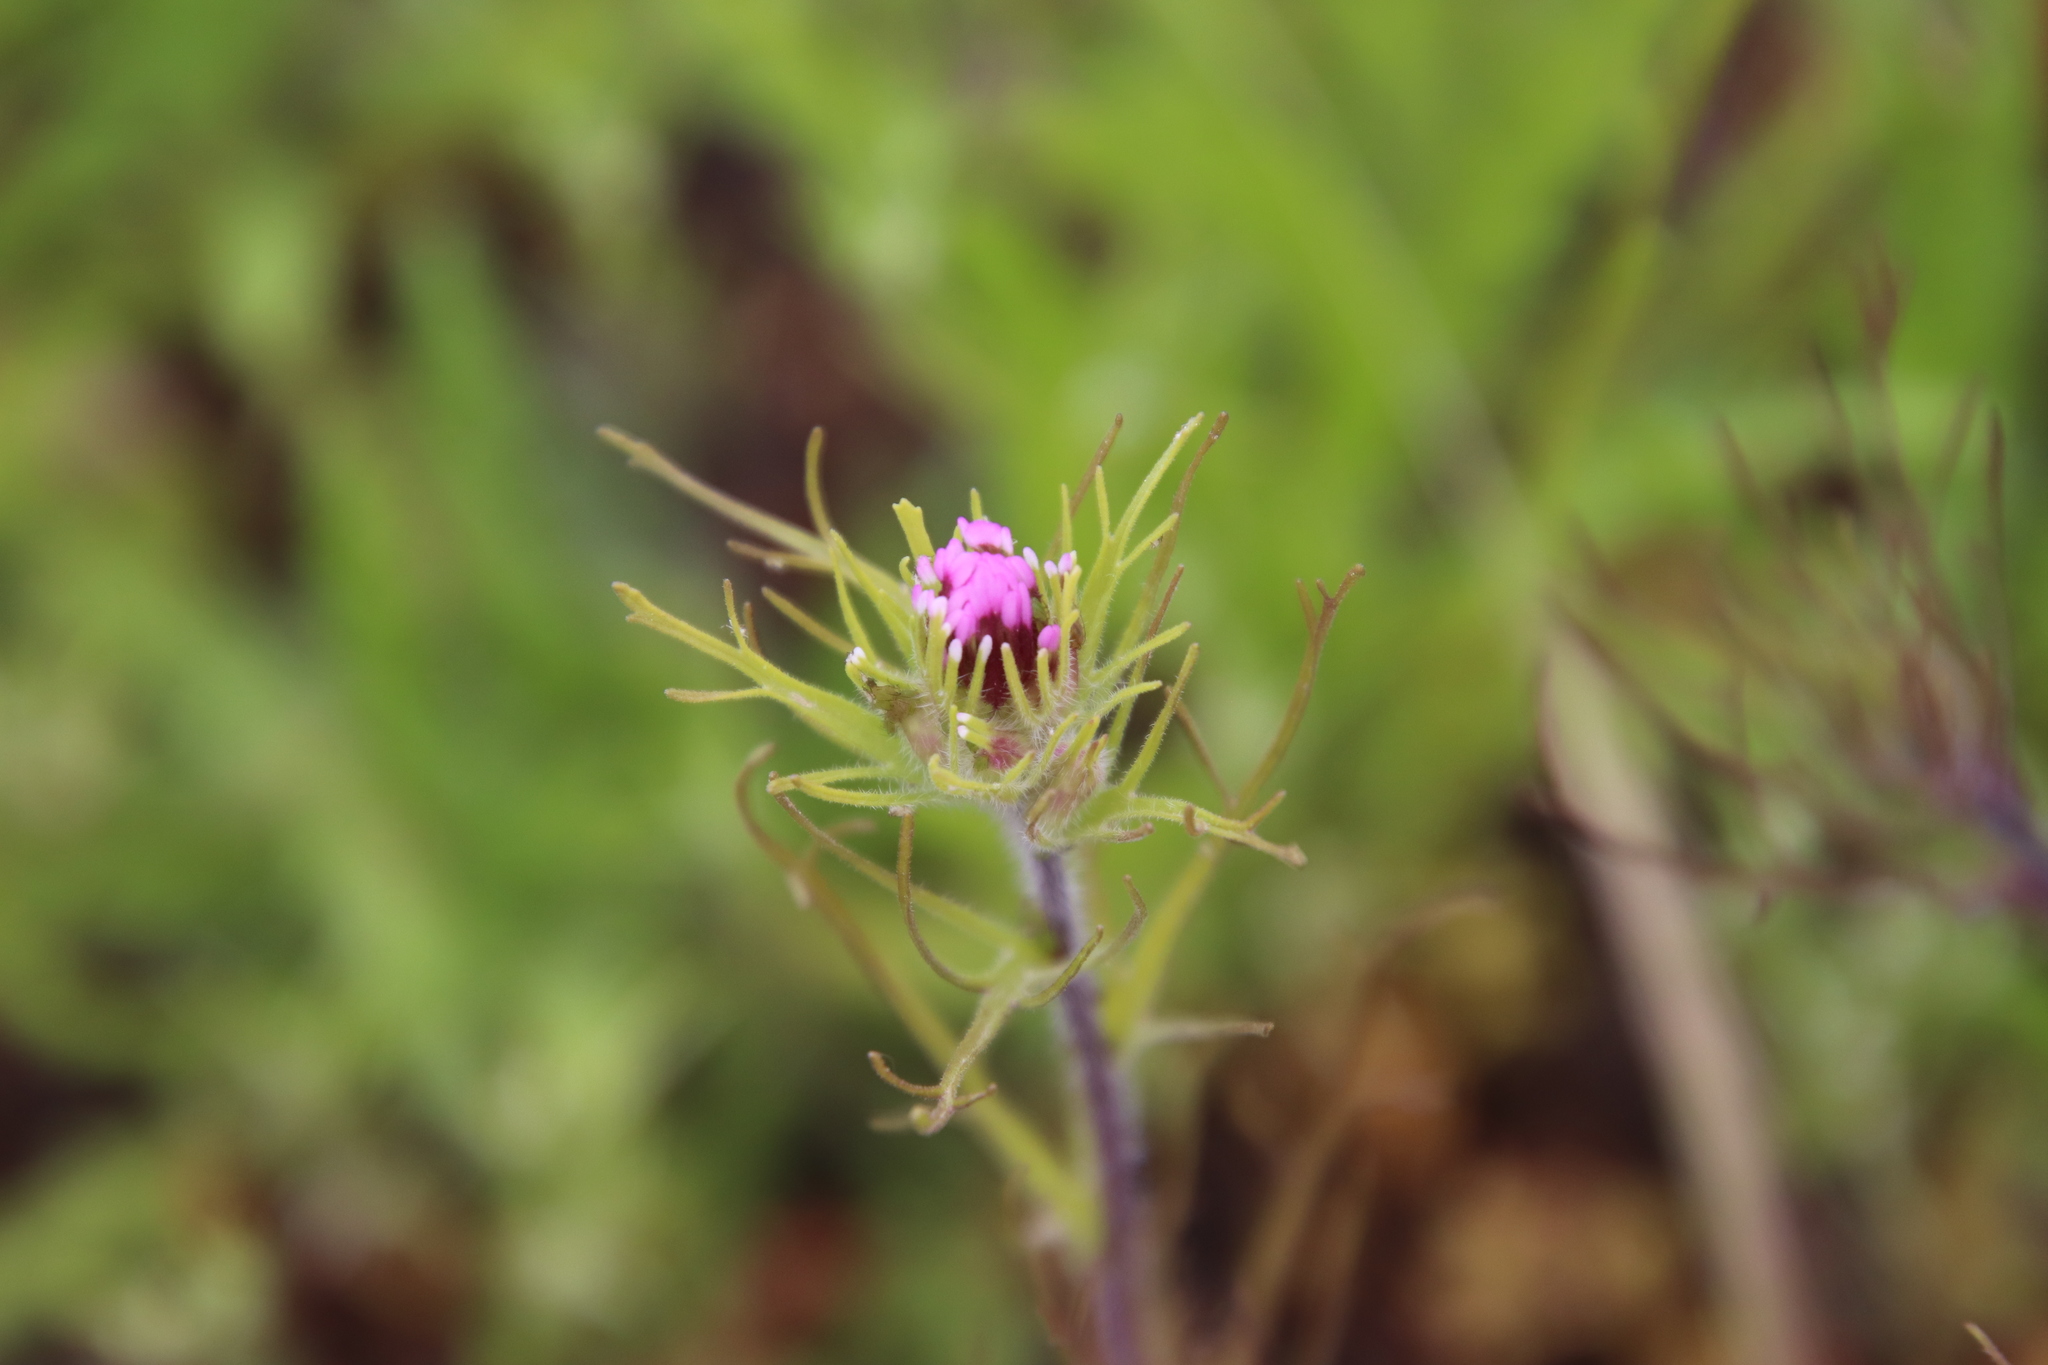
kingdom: Plantae
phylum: Tracheophyta
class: Magnoliopsida
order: Lamiales
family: Orobanchaceae
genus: Castilleja
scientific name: Castilleja exserta
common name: Purple owl-clover
